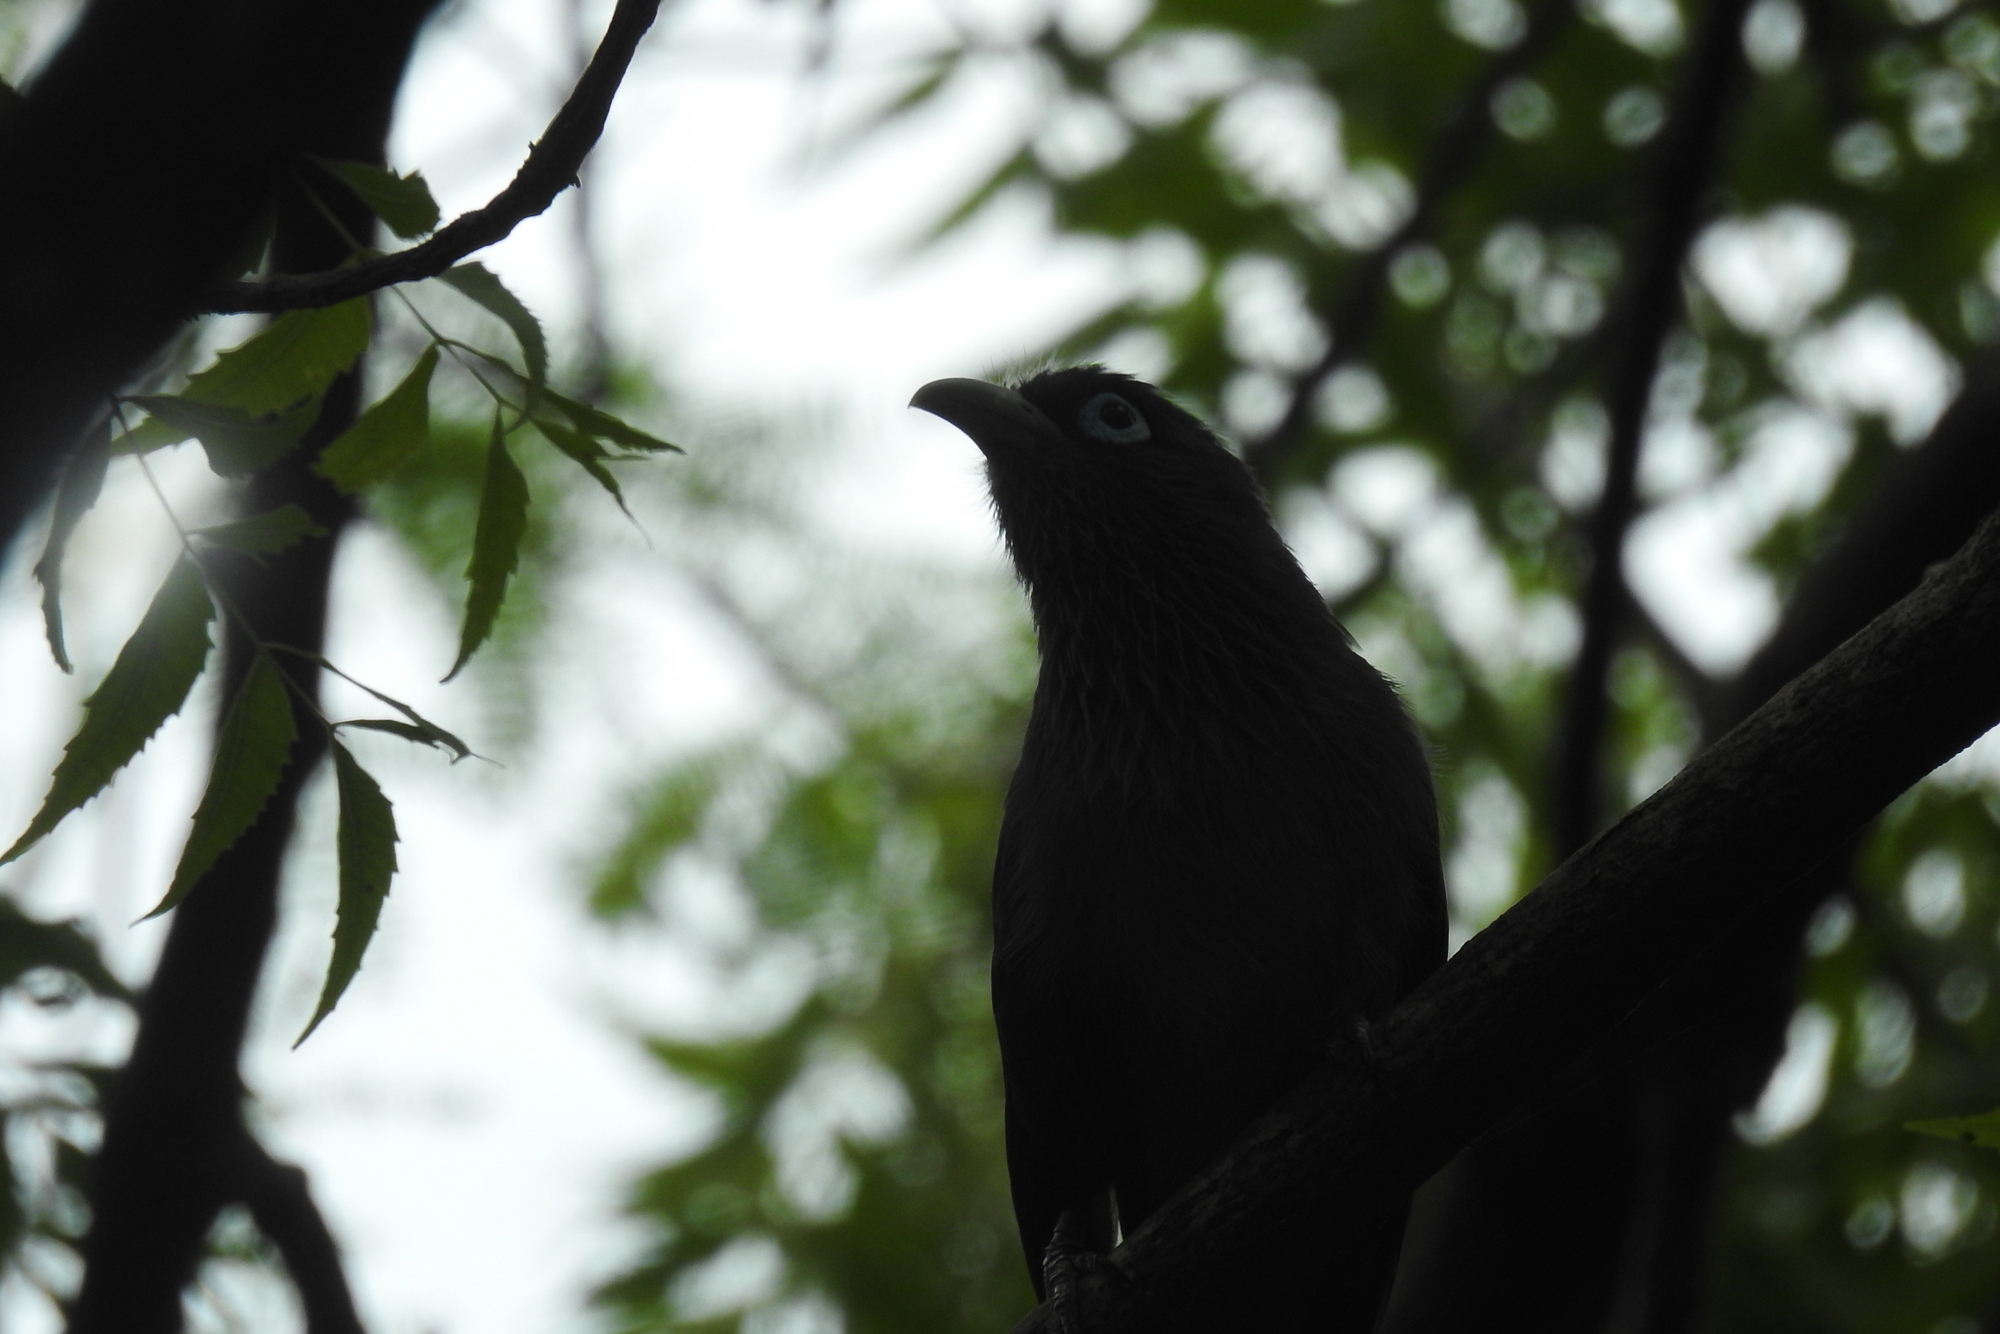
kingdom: Animalia
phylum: Chordata
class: Aves
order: Cuculiformes
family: Cuculidae
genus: Rhopodytes
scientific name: Rhopodytes viridirostris
